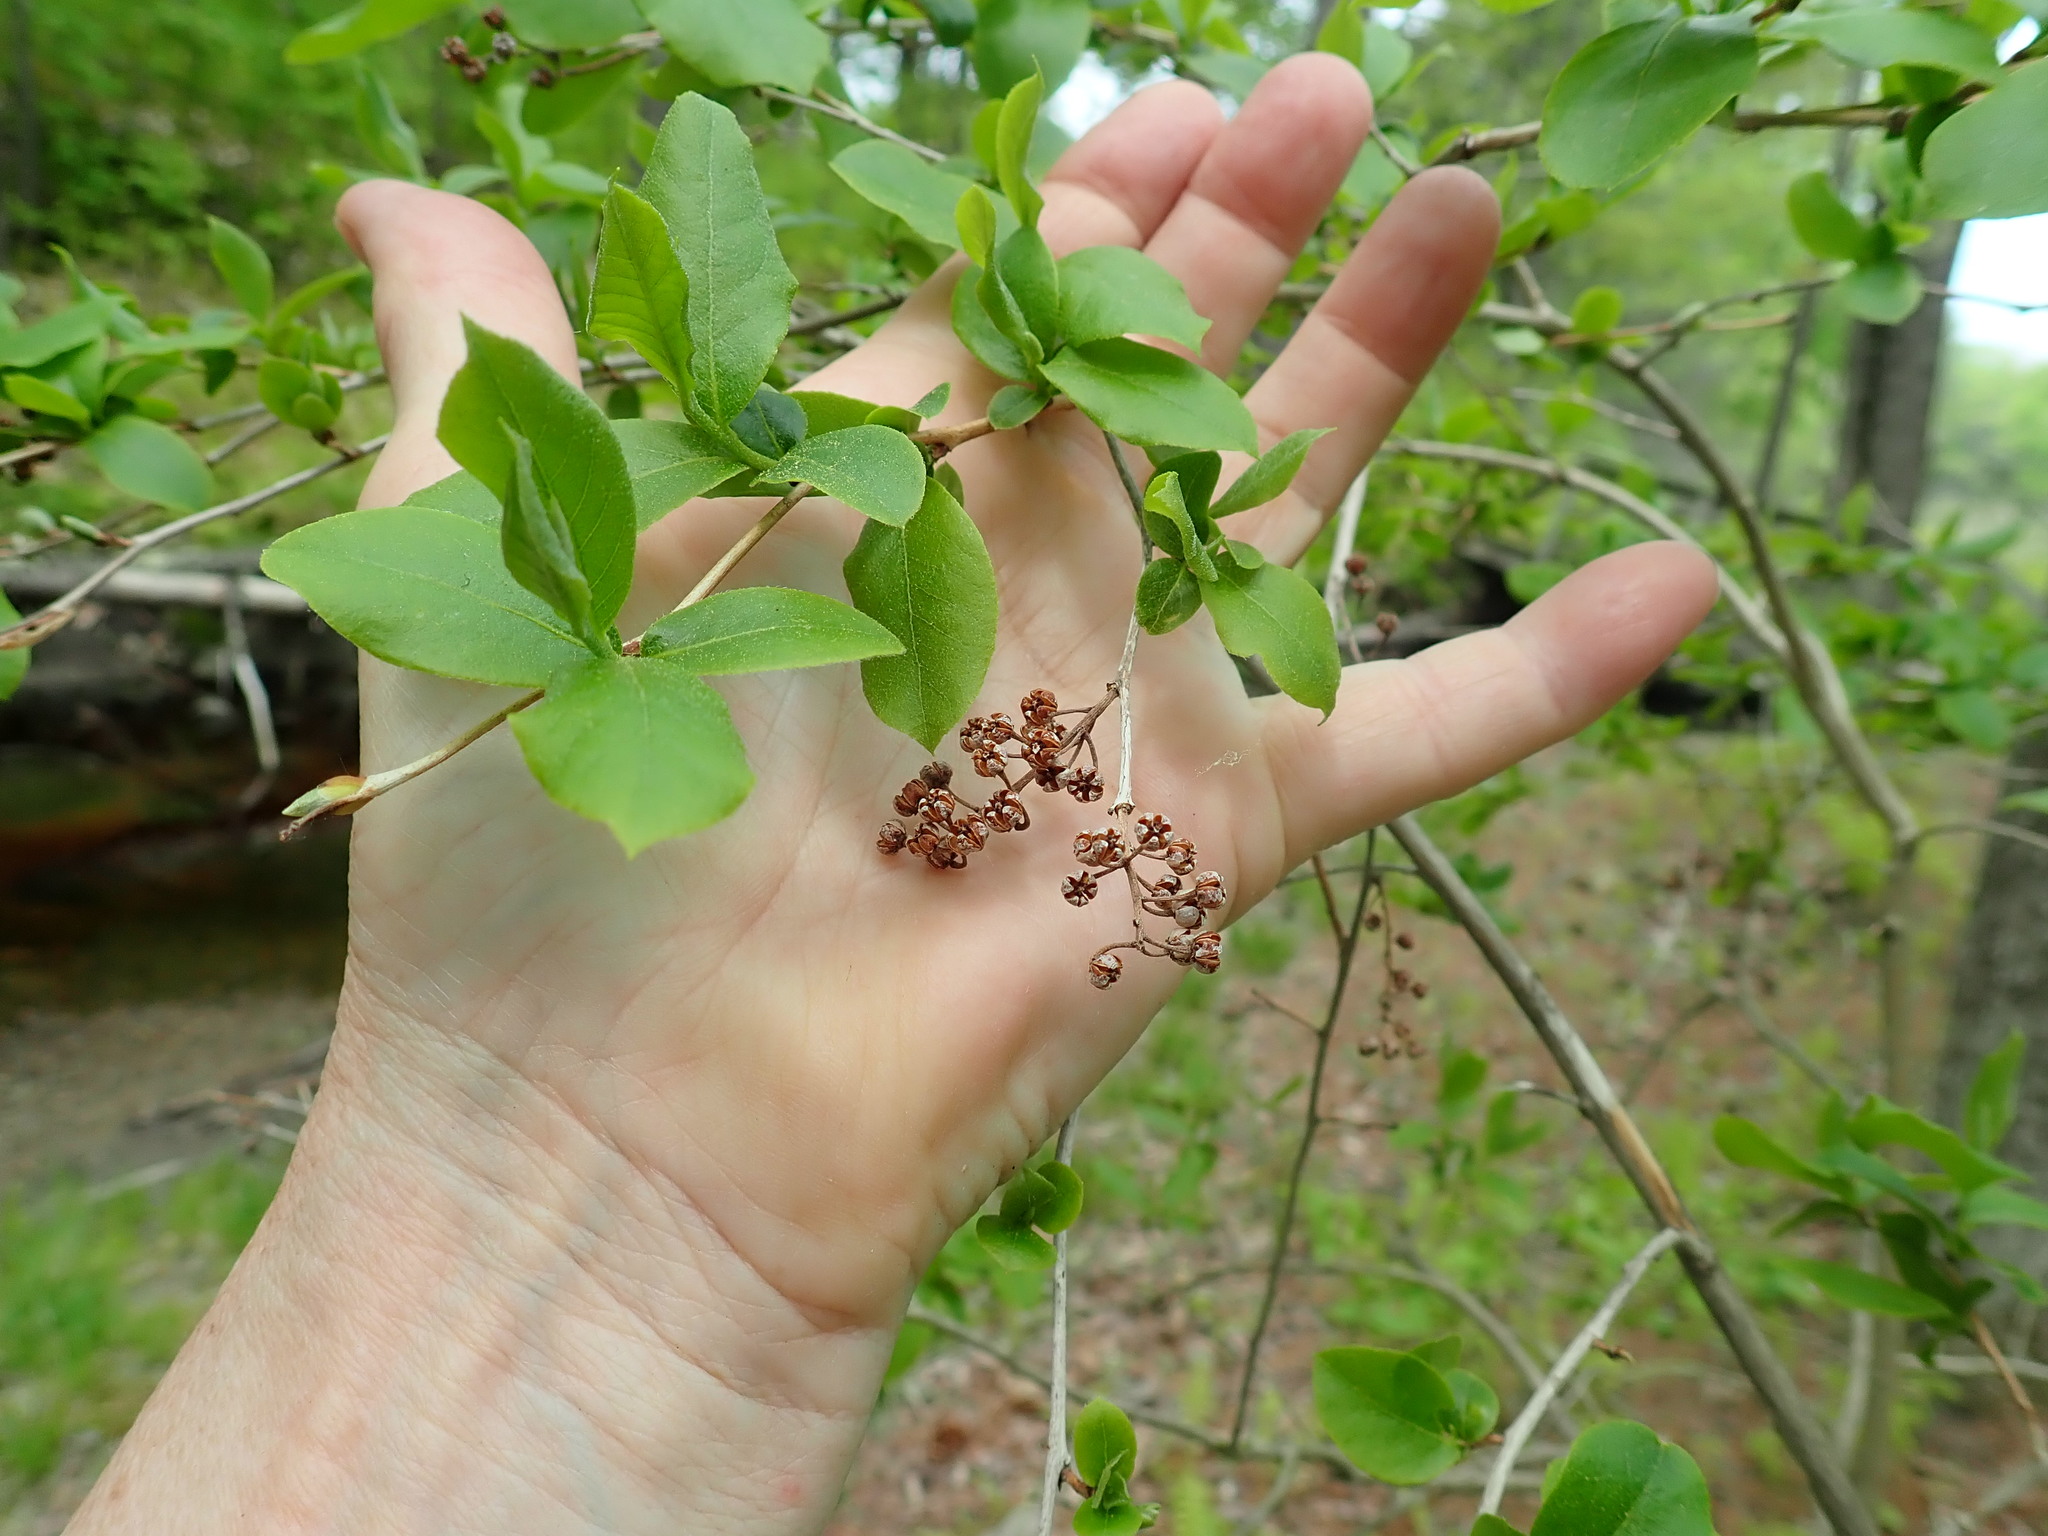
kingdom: Plantae
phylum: Tracheophyta
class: Magnoliopsida
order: Ericales
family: Ericaceae
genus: Lyonia
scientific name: Lyonia ligustrina
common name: Maleberry
